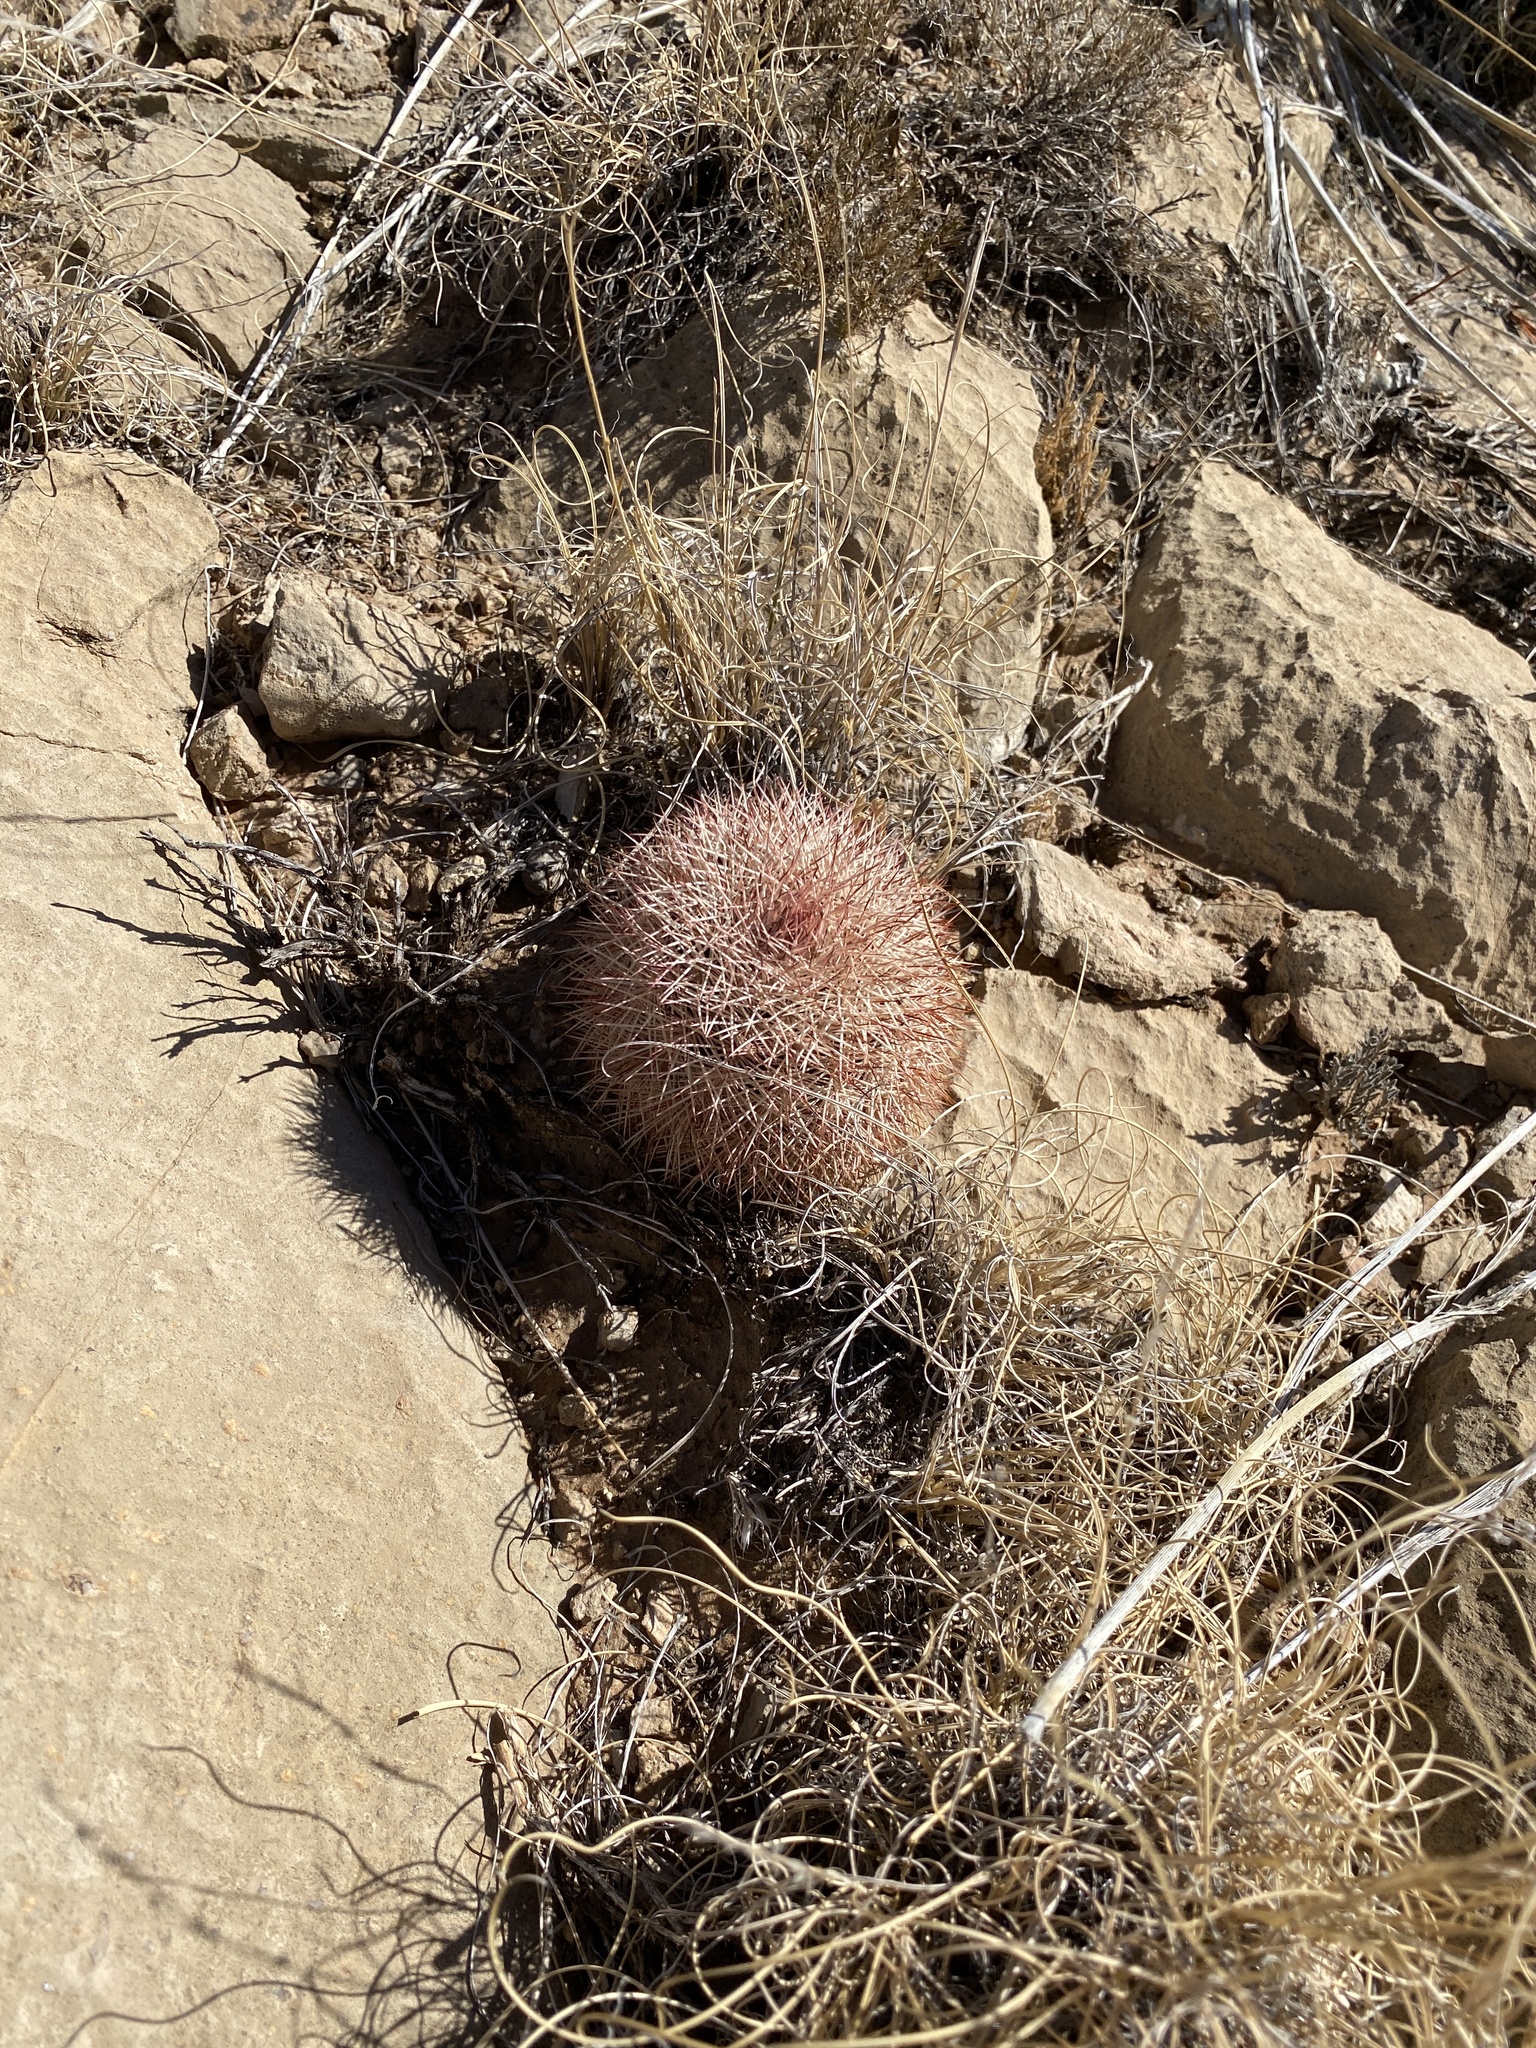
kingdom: Plantae
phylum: Tracheophyta
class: Magnoliopsida
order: Caryophyllales
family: Cactaceae
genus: Echinocereus
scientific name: Echinocereus dasyacanthus
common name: Spiny hedgehog cactus
